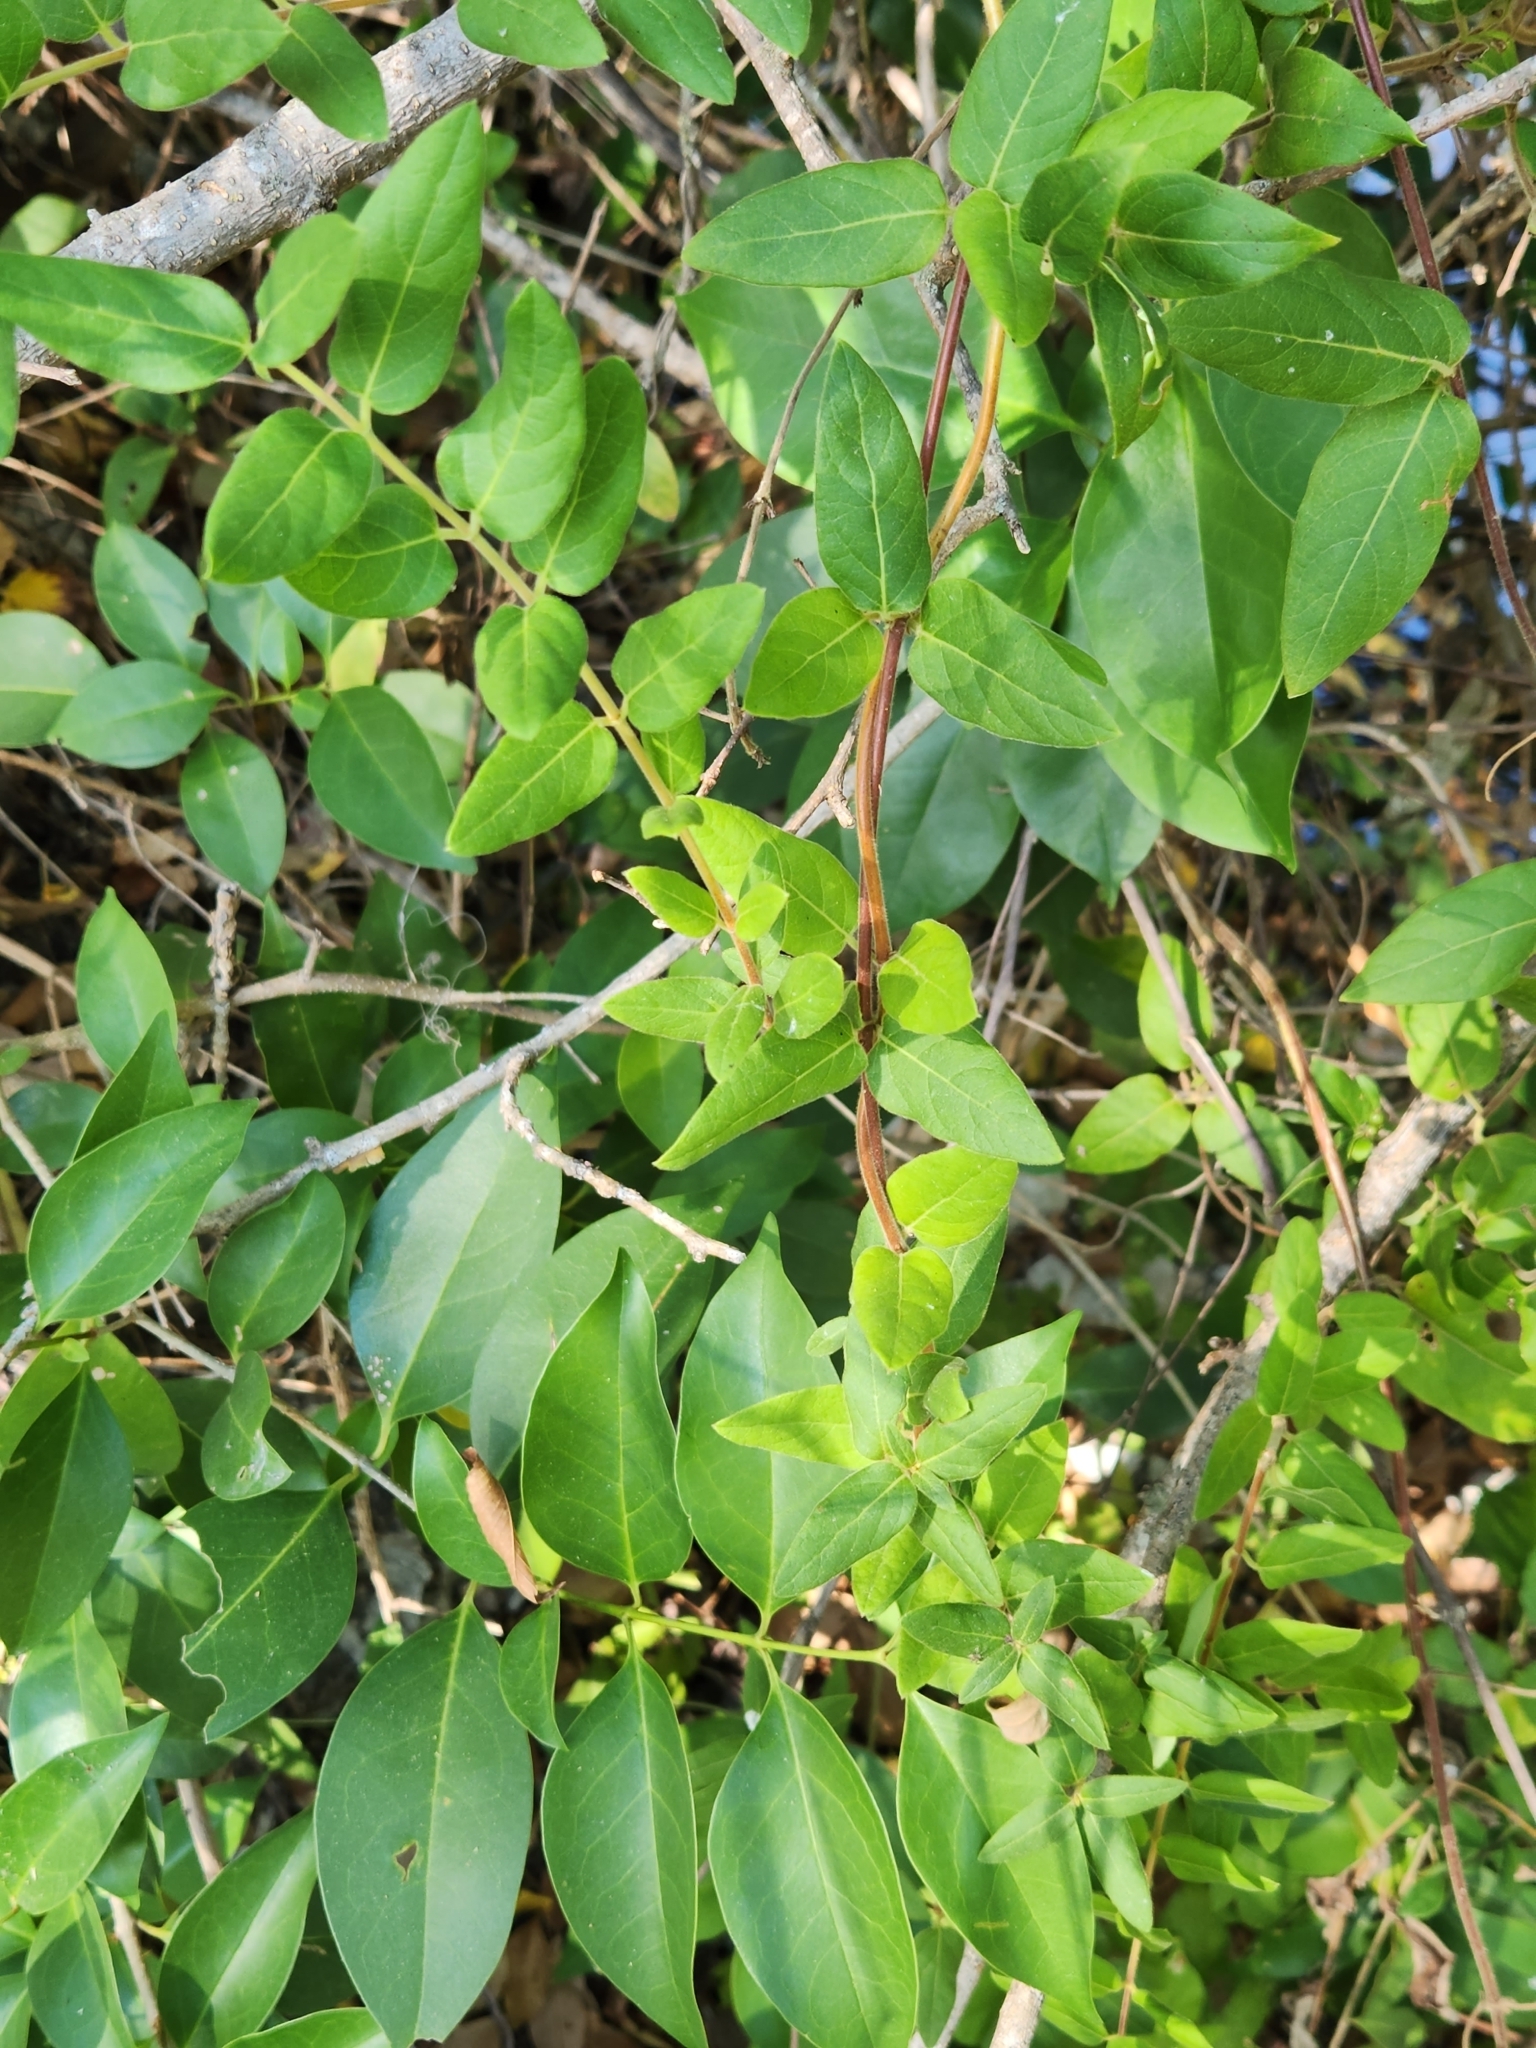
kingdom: Plantae
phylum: Tracheophyta
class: Magnoliopsida
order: Dipsacales
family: Caprifoliaceae
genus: Lonicera
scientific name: Lonicera japonica
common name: Japanese honeysuckle
